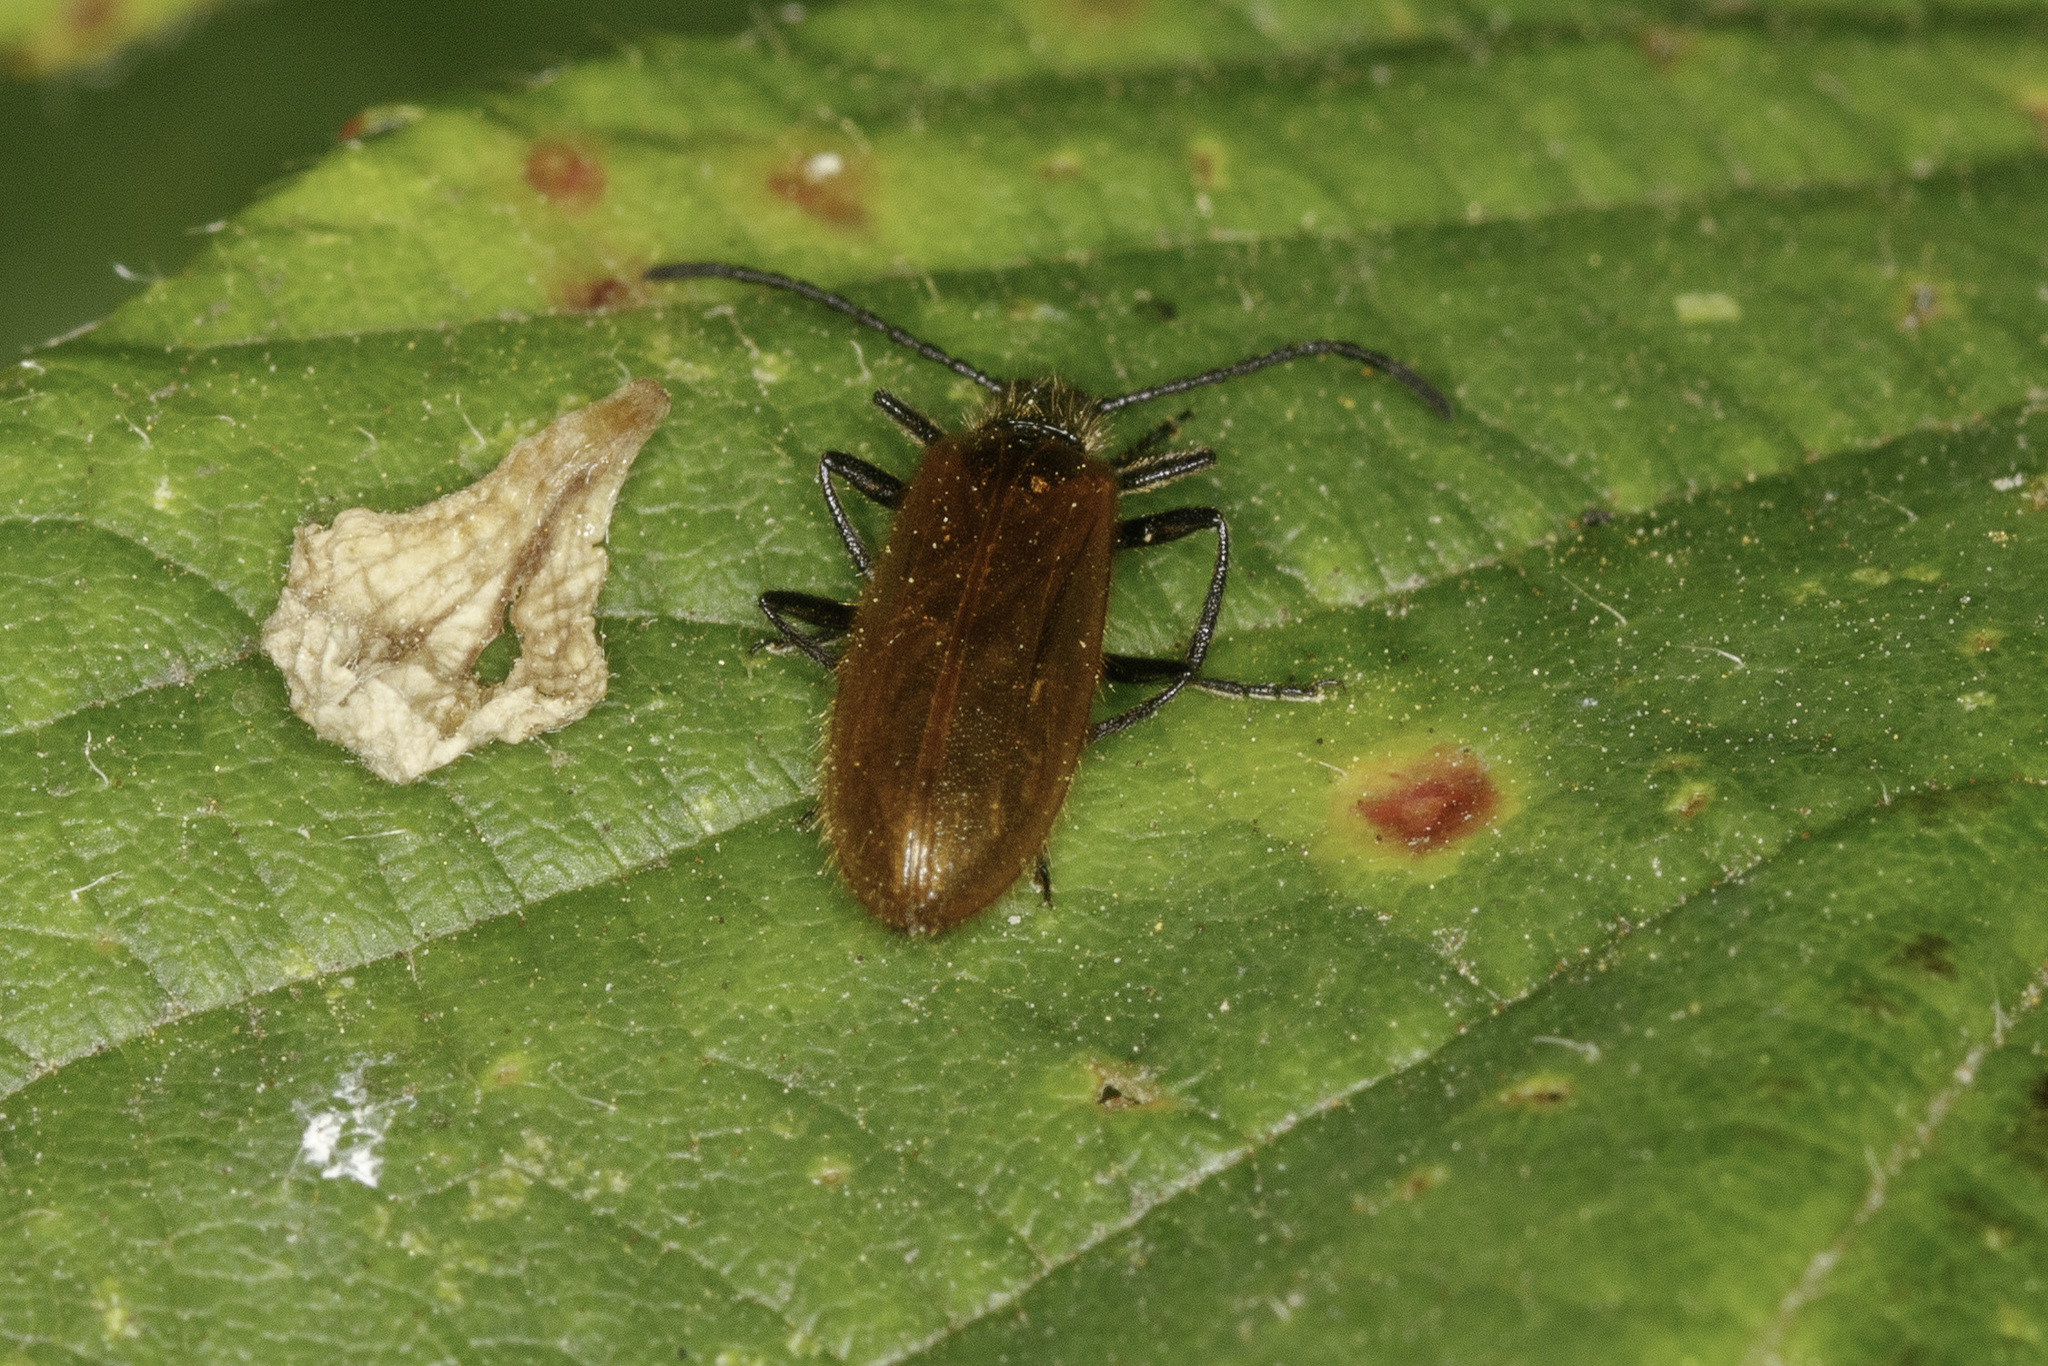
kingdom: Animalia
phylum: Arthropoda
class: Insecta
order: Coleoptera
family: Tenebrionidae
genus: Lagria
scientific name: Lagria hirta
